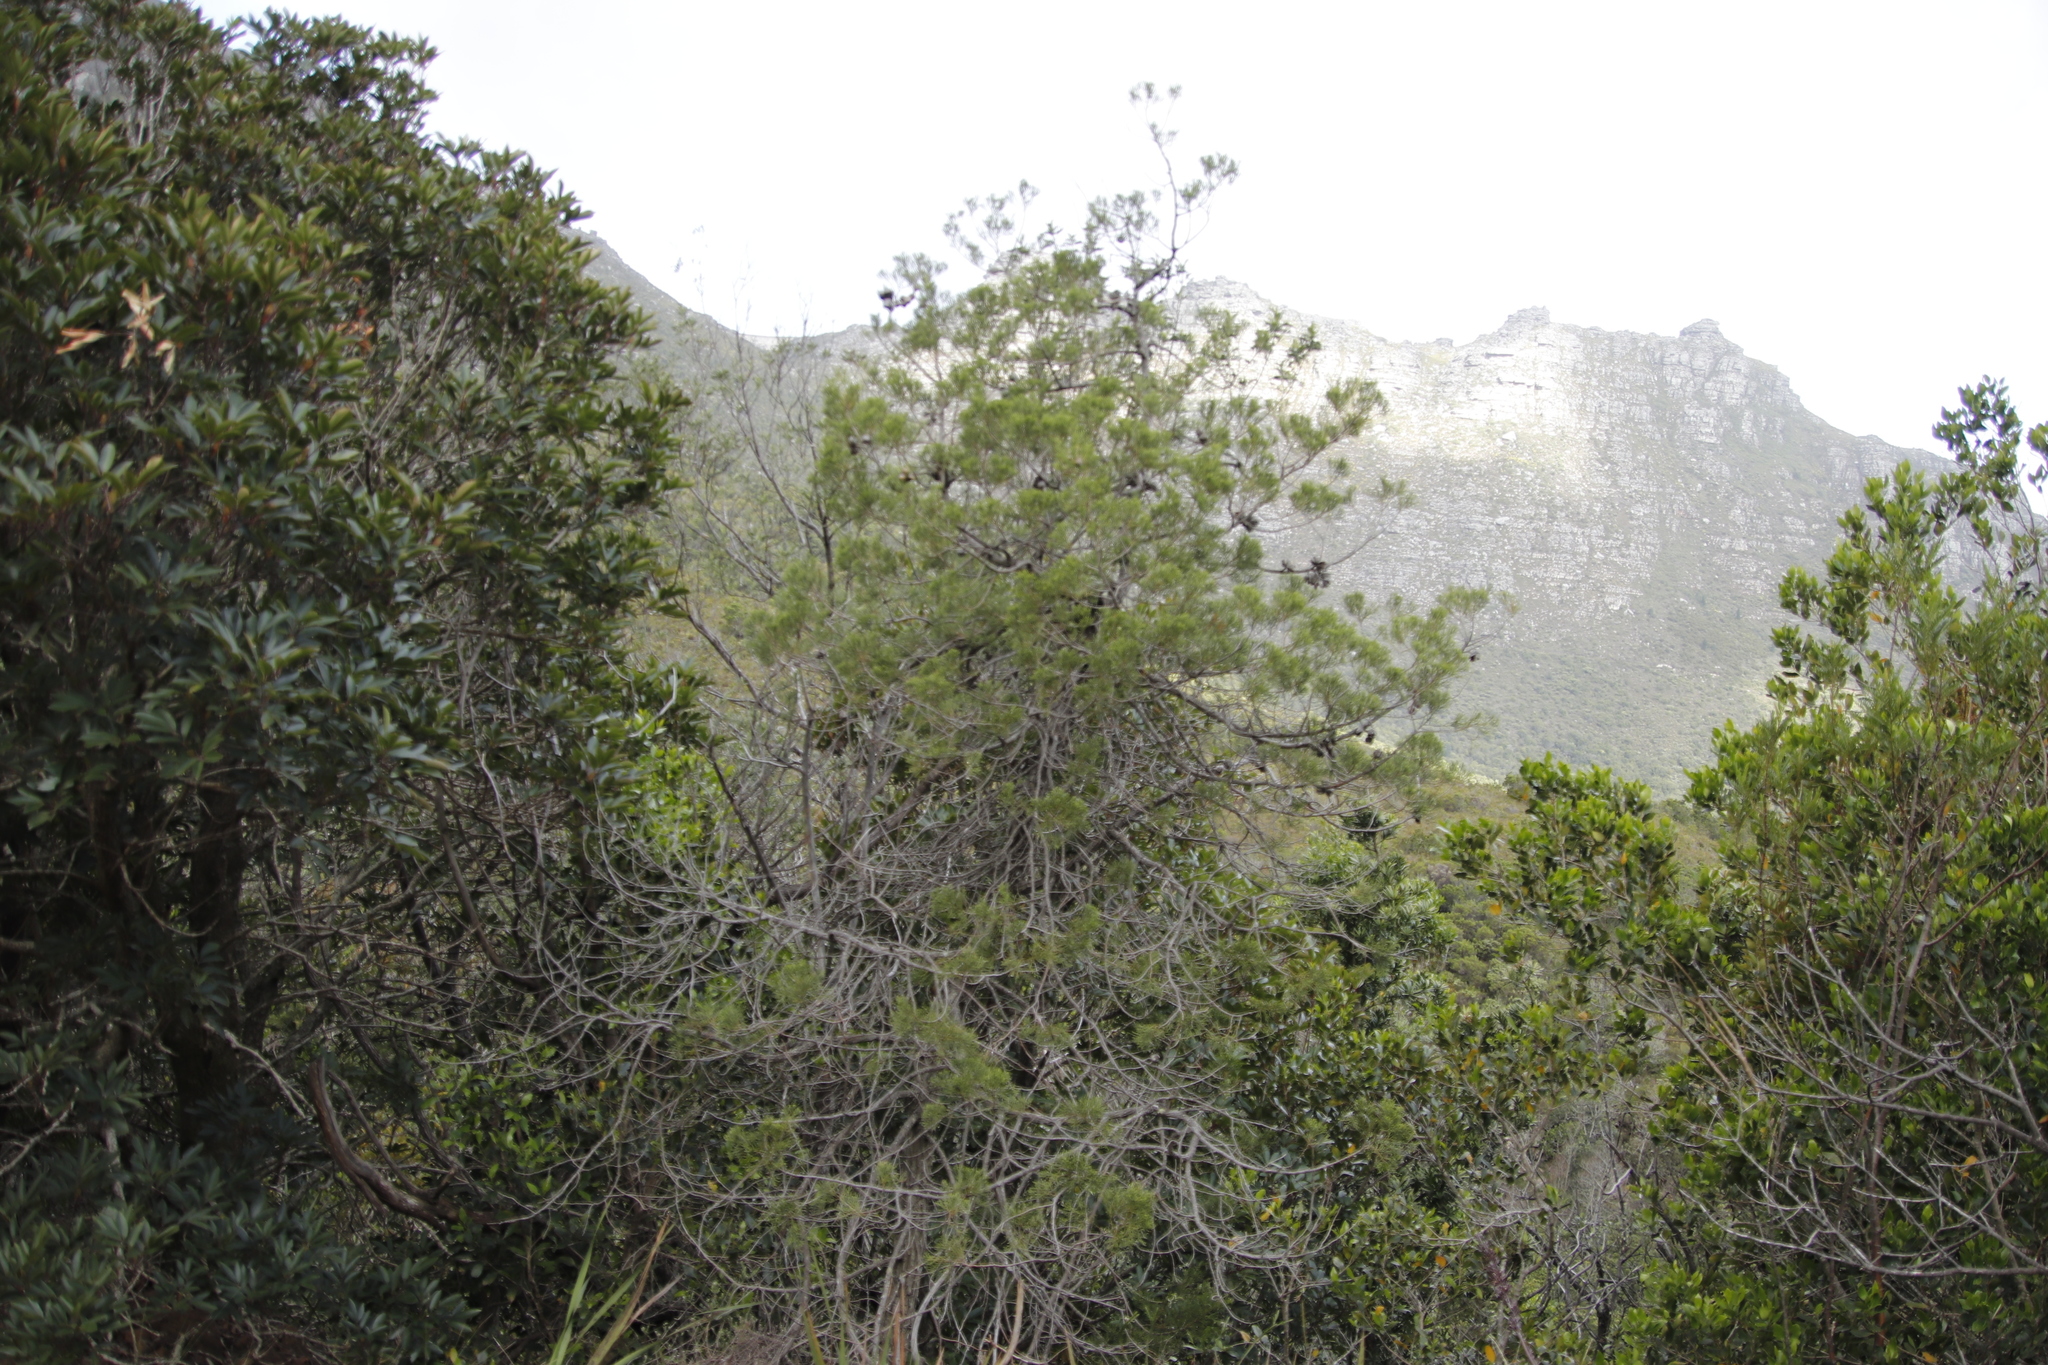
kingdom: Plantae
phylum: Tracheophyta
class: Pinopsida
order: Pinales
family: Cupressaceae
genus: Widdringtonia
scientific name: Widdringtonia nodiflora
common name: Cape cypress
